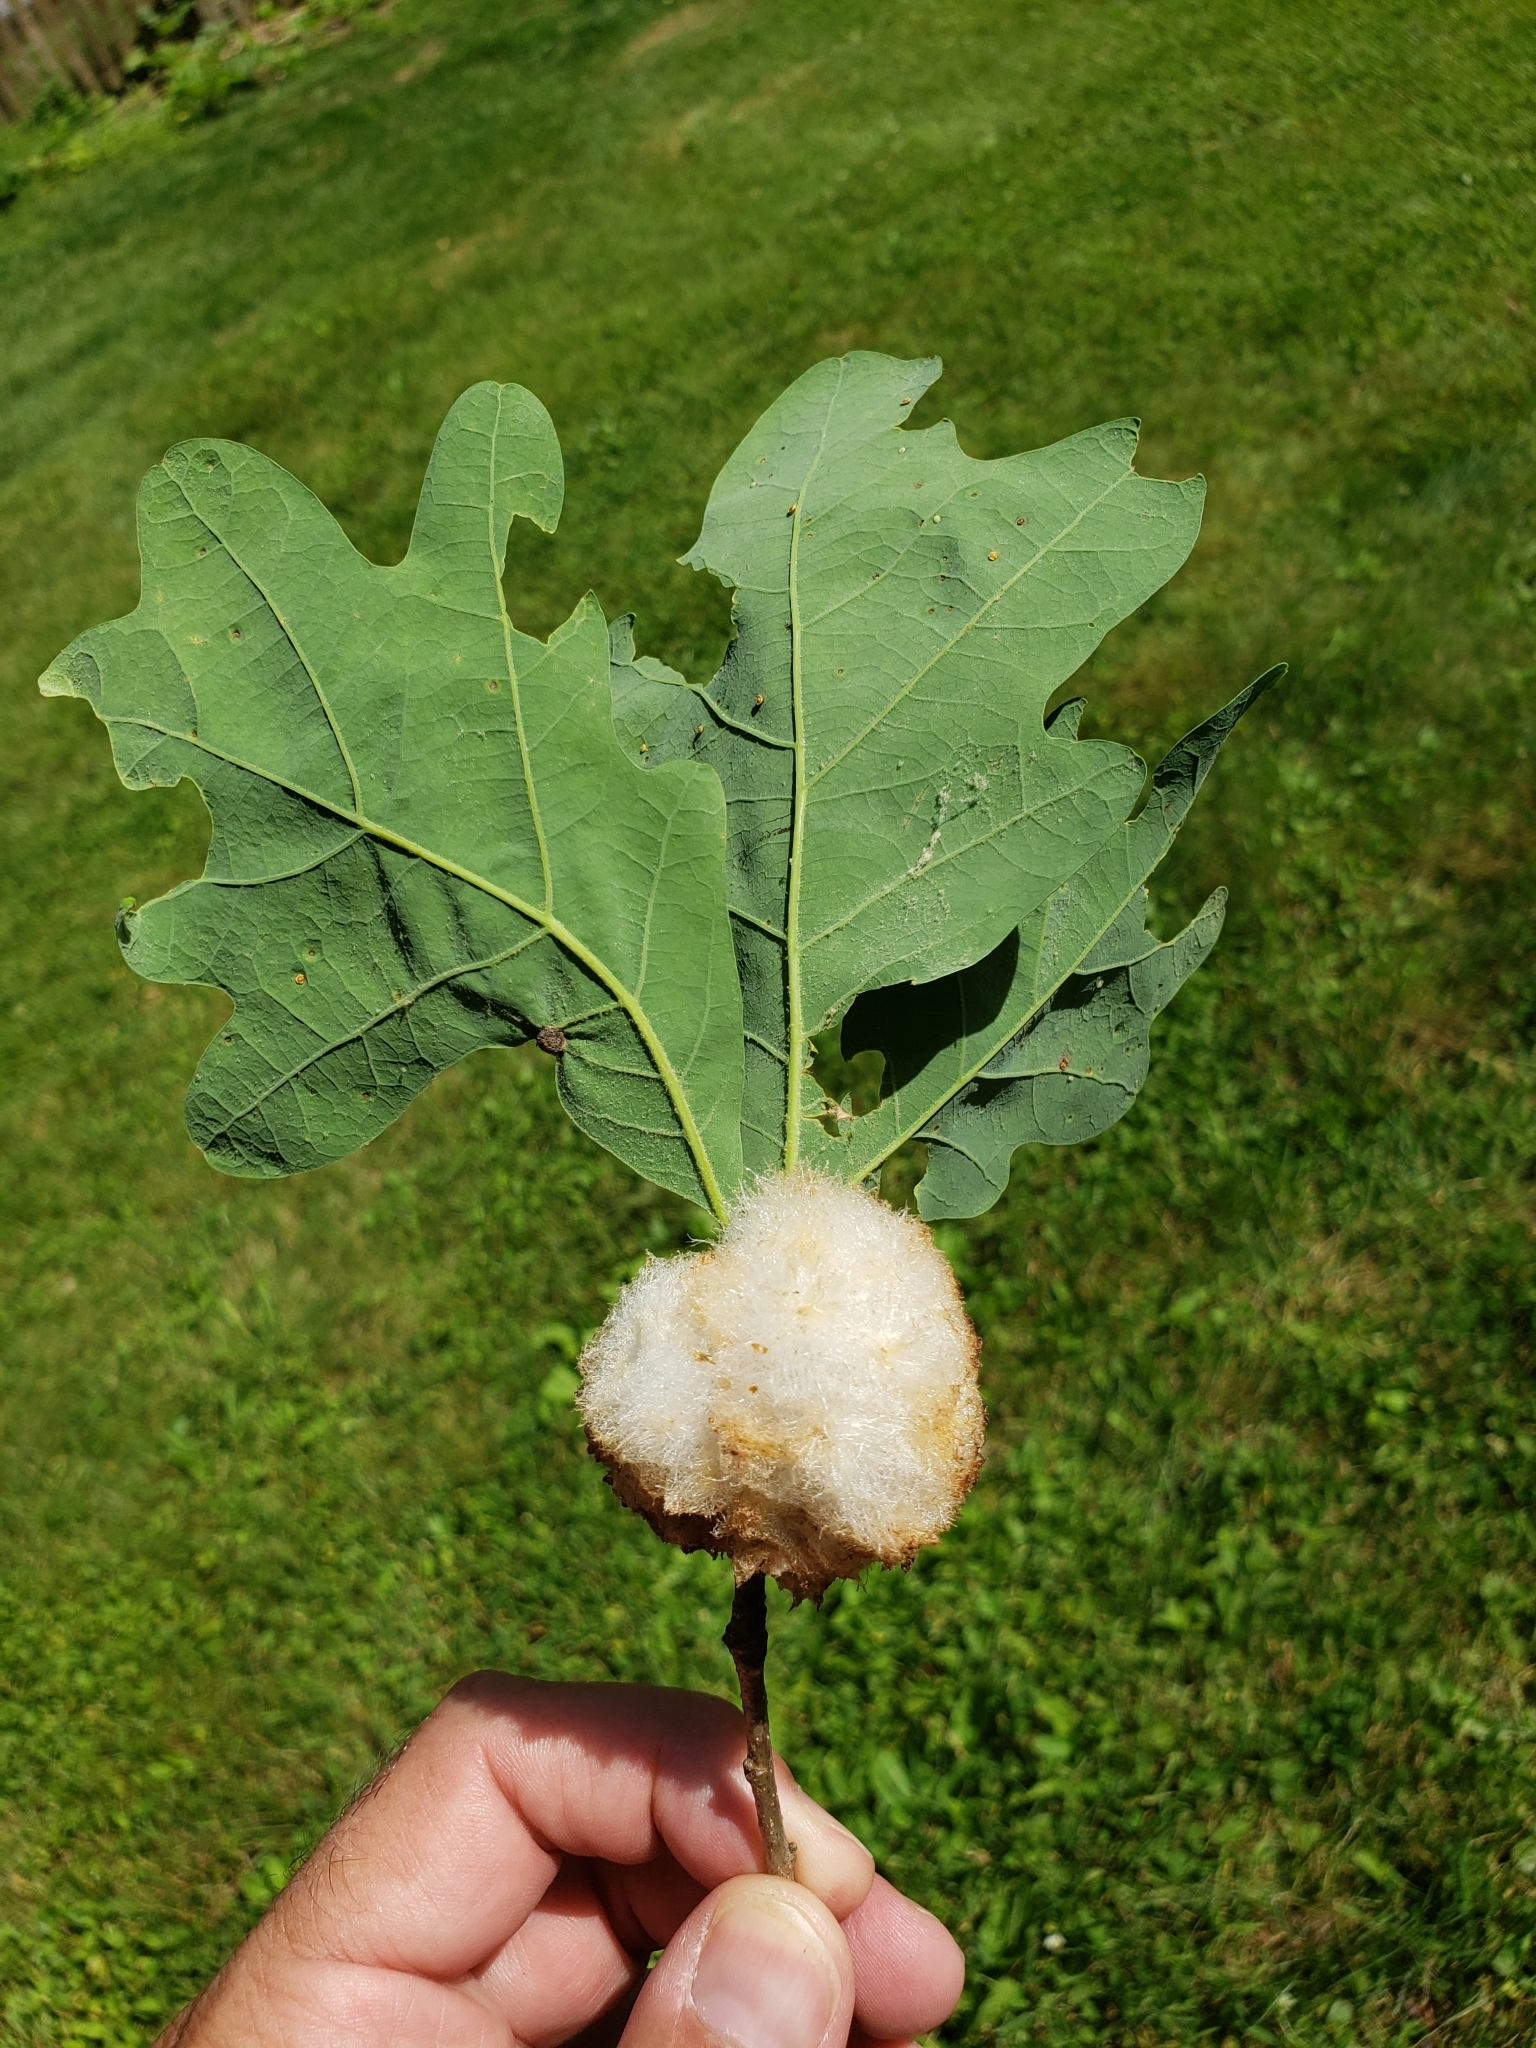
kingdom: Animalia
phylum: Arthropoda
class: Insecta
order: Hymenoptera
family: Cynipidae
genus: Callirhytis
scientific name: Callirhytis
